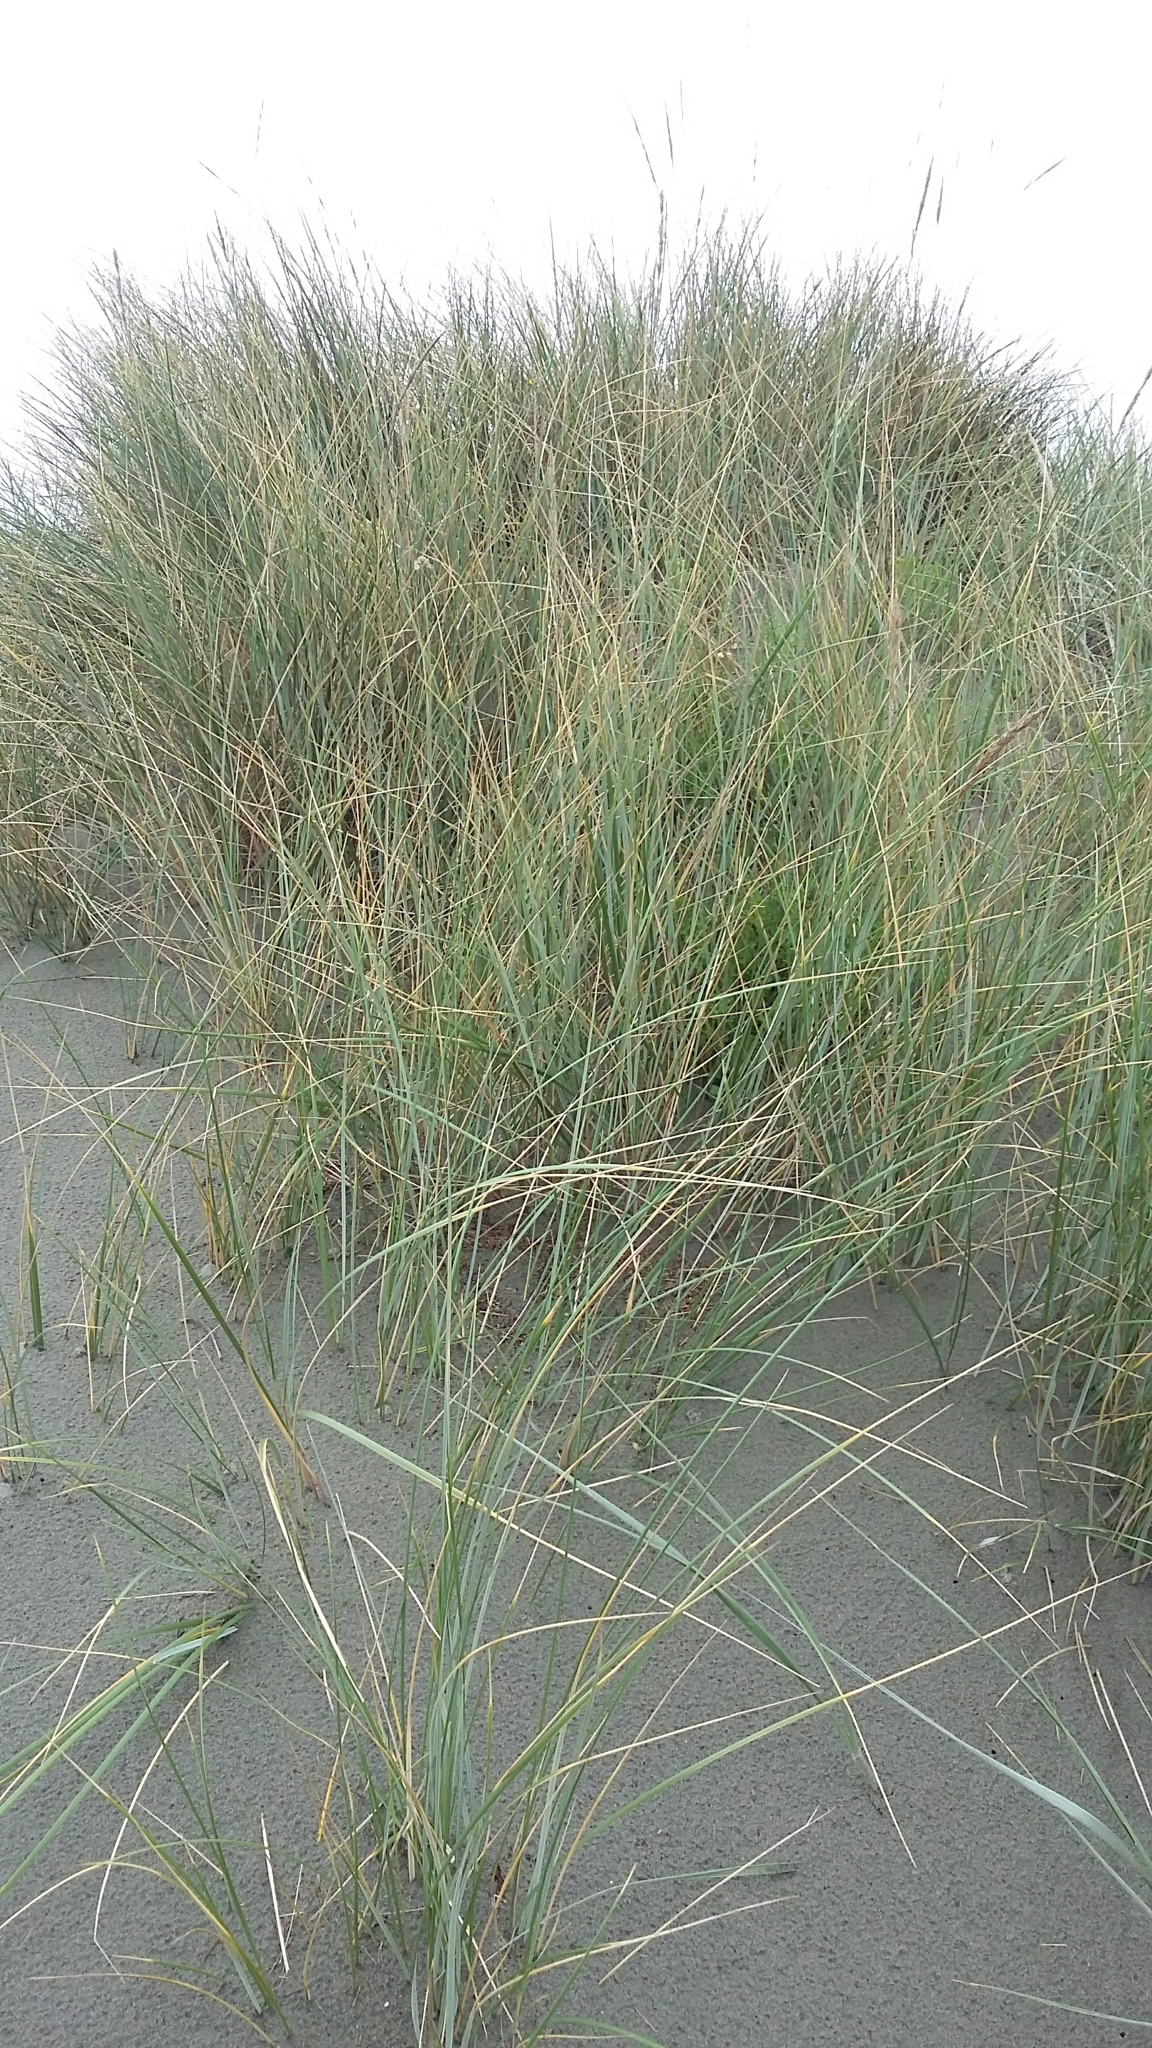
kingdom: Plantae
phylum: Tracheophyta
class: Liliopsida
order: Poales
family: Poaceae
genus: Calamagrostis
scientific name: Calamagrostis arenaria
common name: European beachgrass
